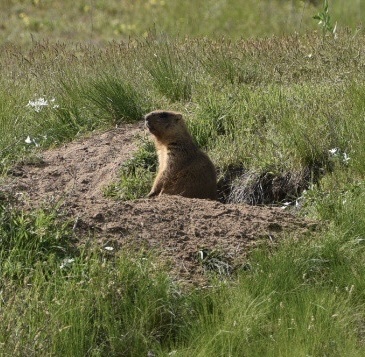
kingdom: Animalia
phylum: Chordata
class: Mammalia
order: Rodentia
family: Sciuridae
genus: Marmota
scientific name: Marmota bobak
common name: Bobak marmot
